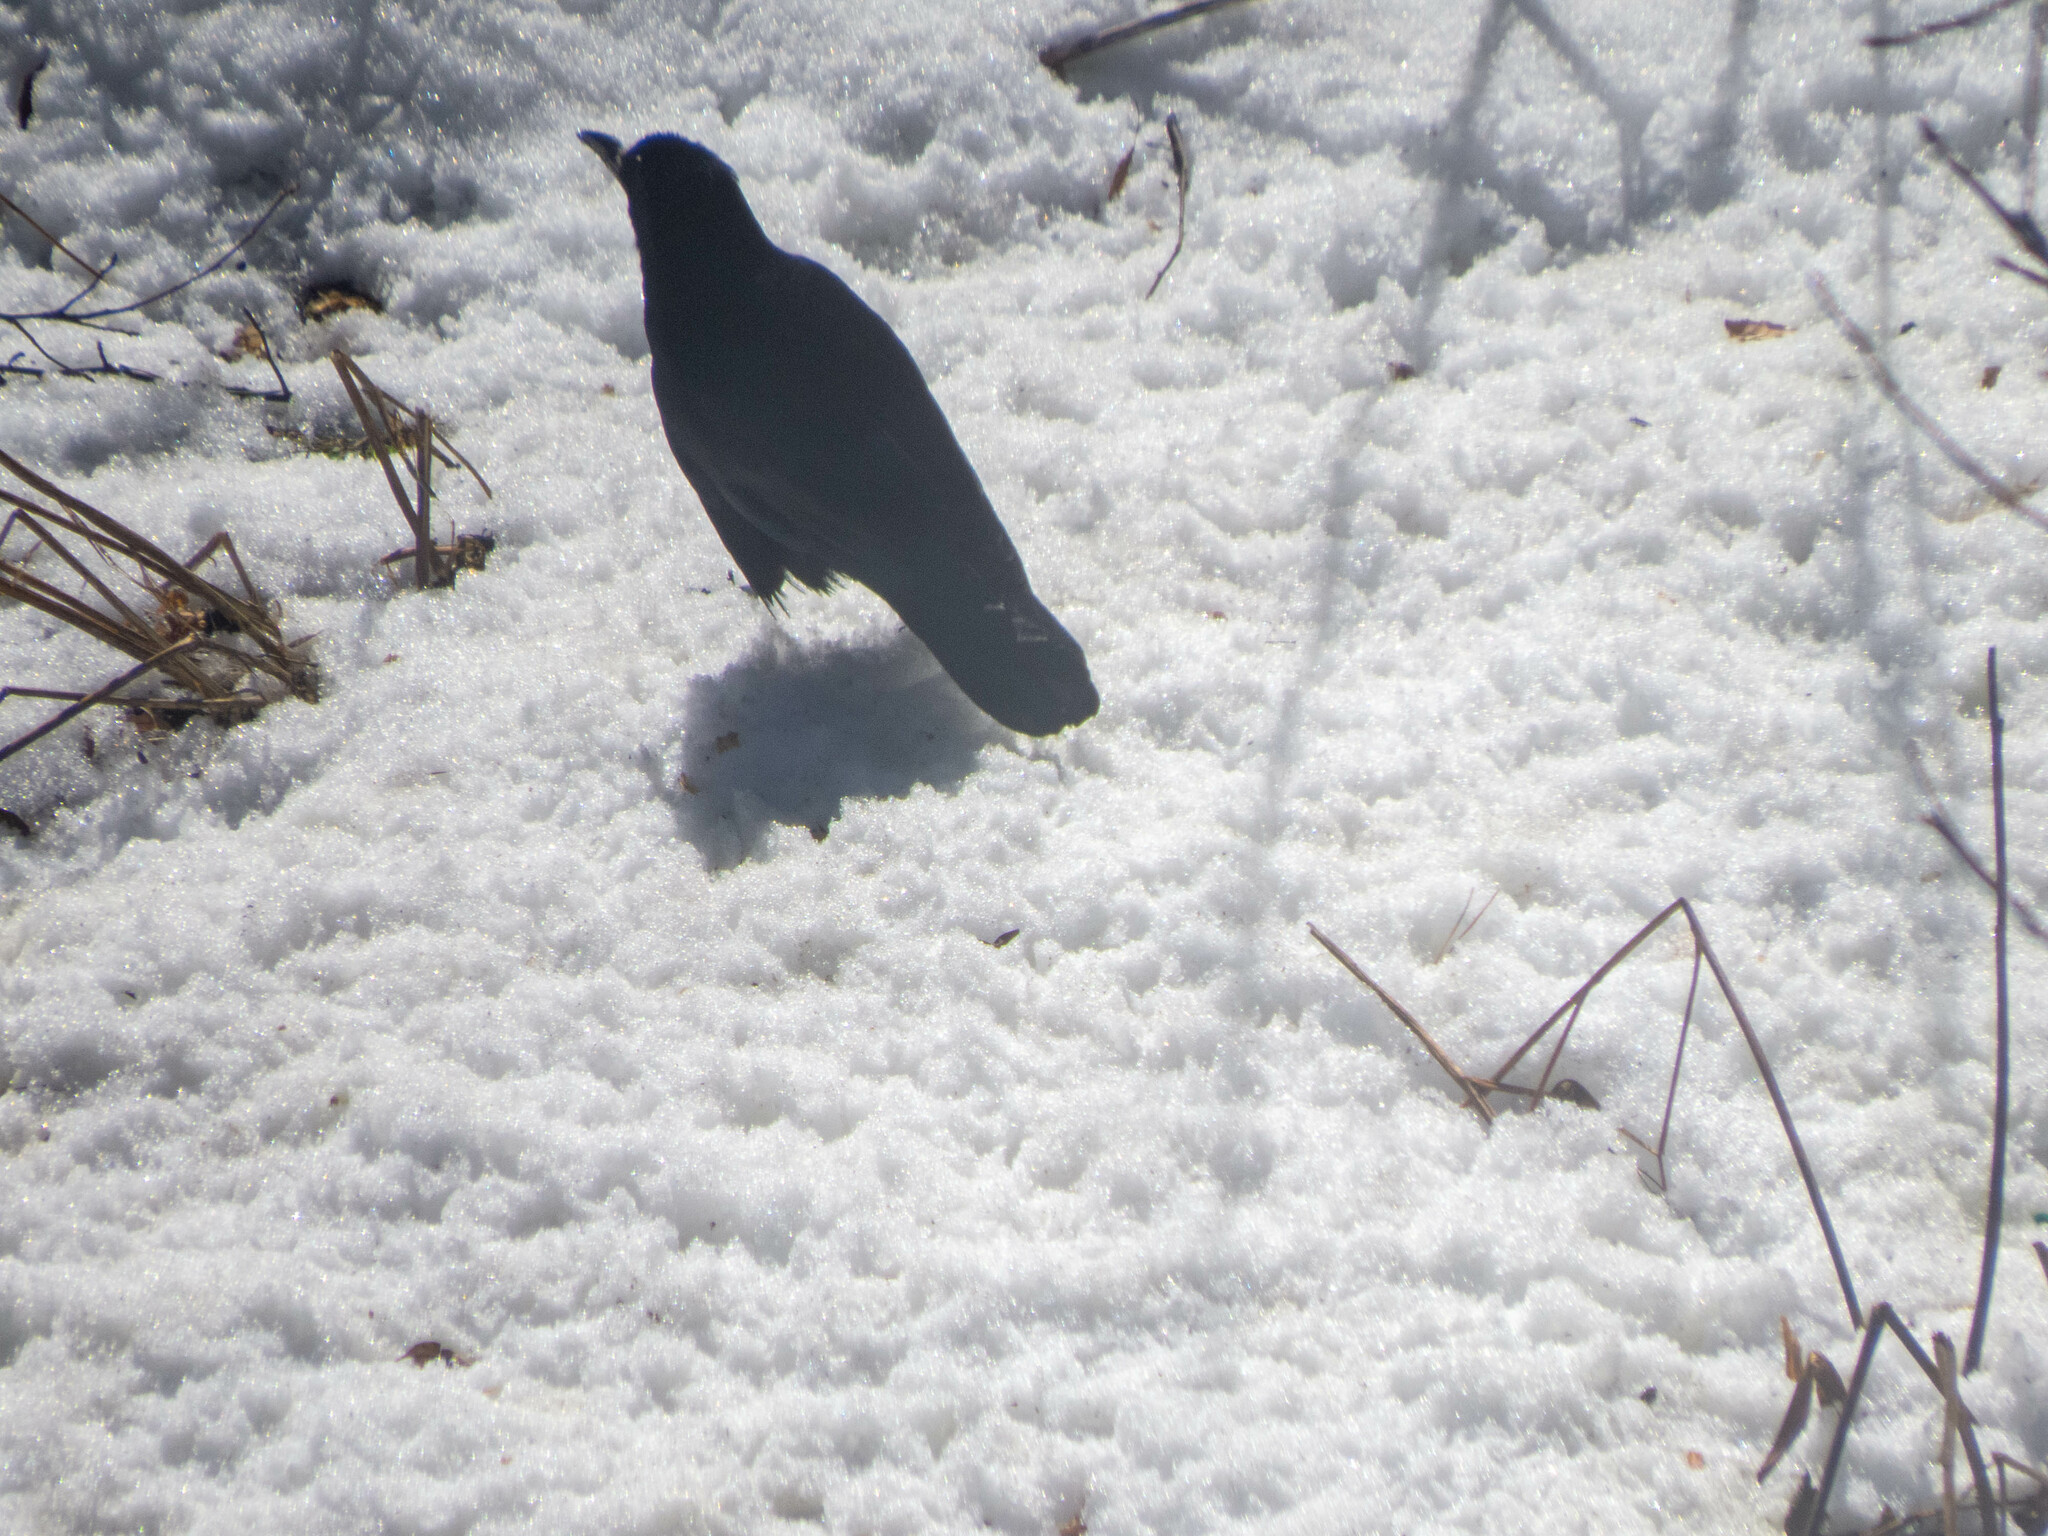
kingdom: Animalia
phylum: Chordata
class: Aves
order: Passeriformes
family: Corvidae
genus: Corvus
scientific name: Corvus frugilegus
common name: Rook
